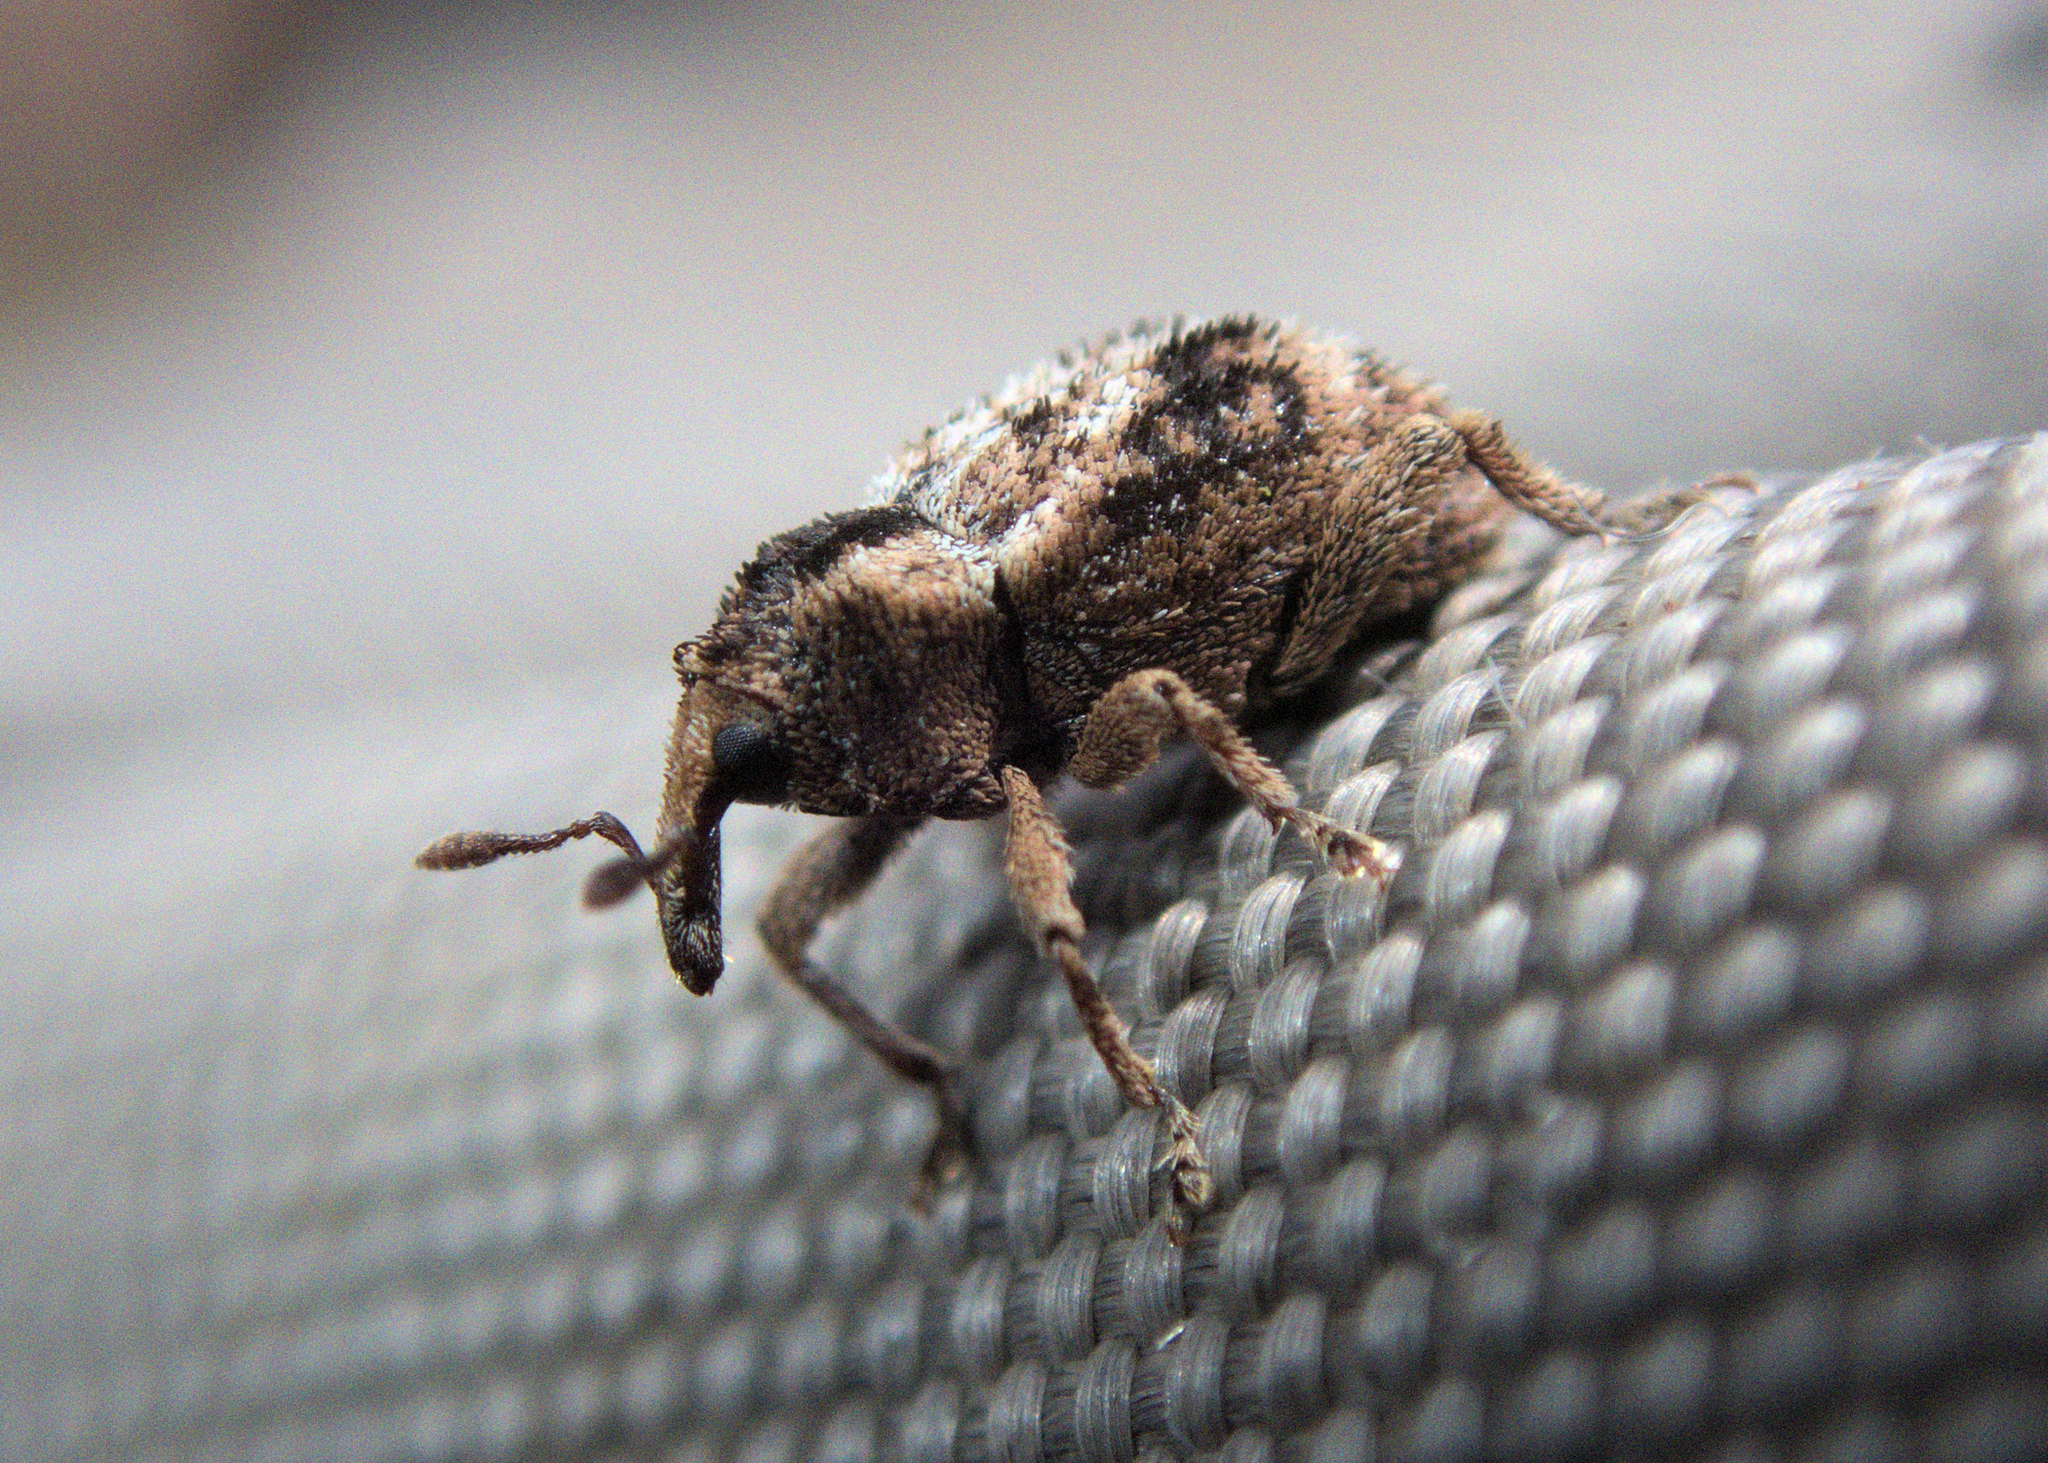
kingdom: Animalia
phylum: Arthropoda
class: Insecta
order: Coleoptera
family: Curculionidae
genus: Mesoreda
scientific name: Mesoreda sulcifrons
